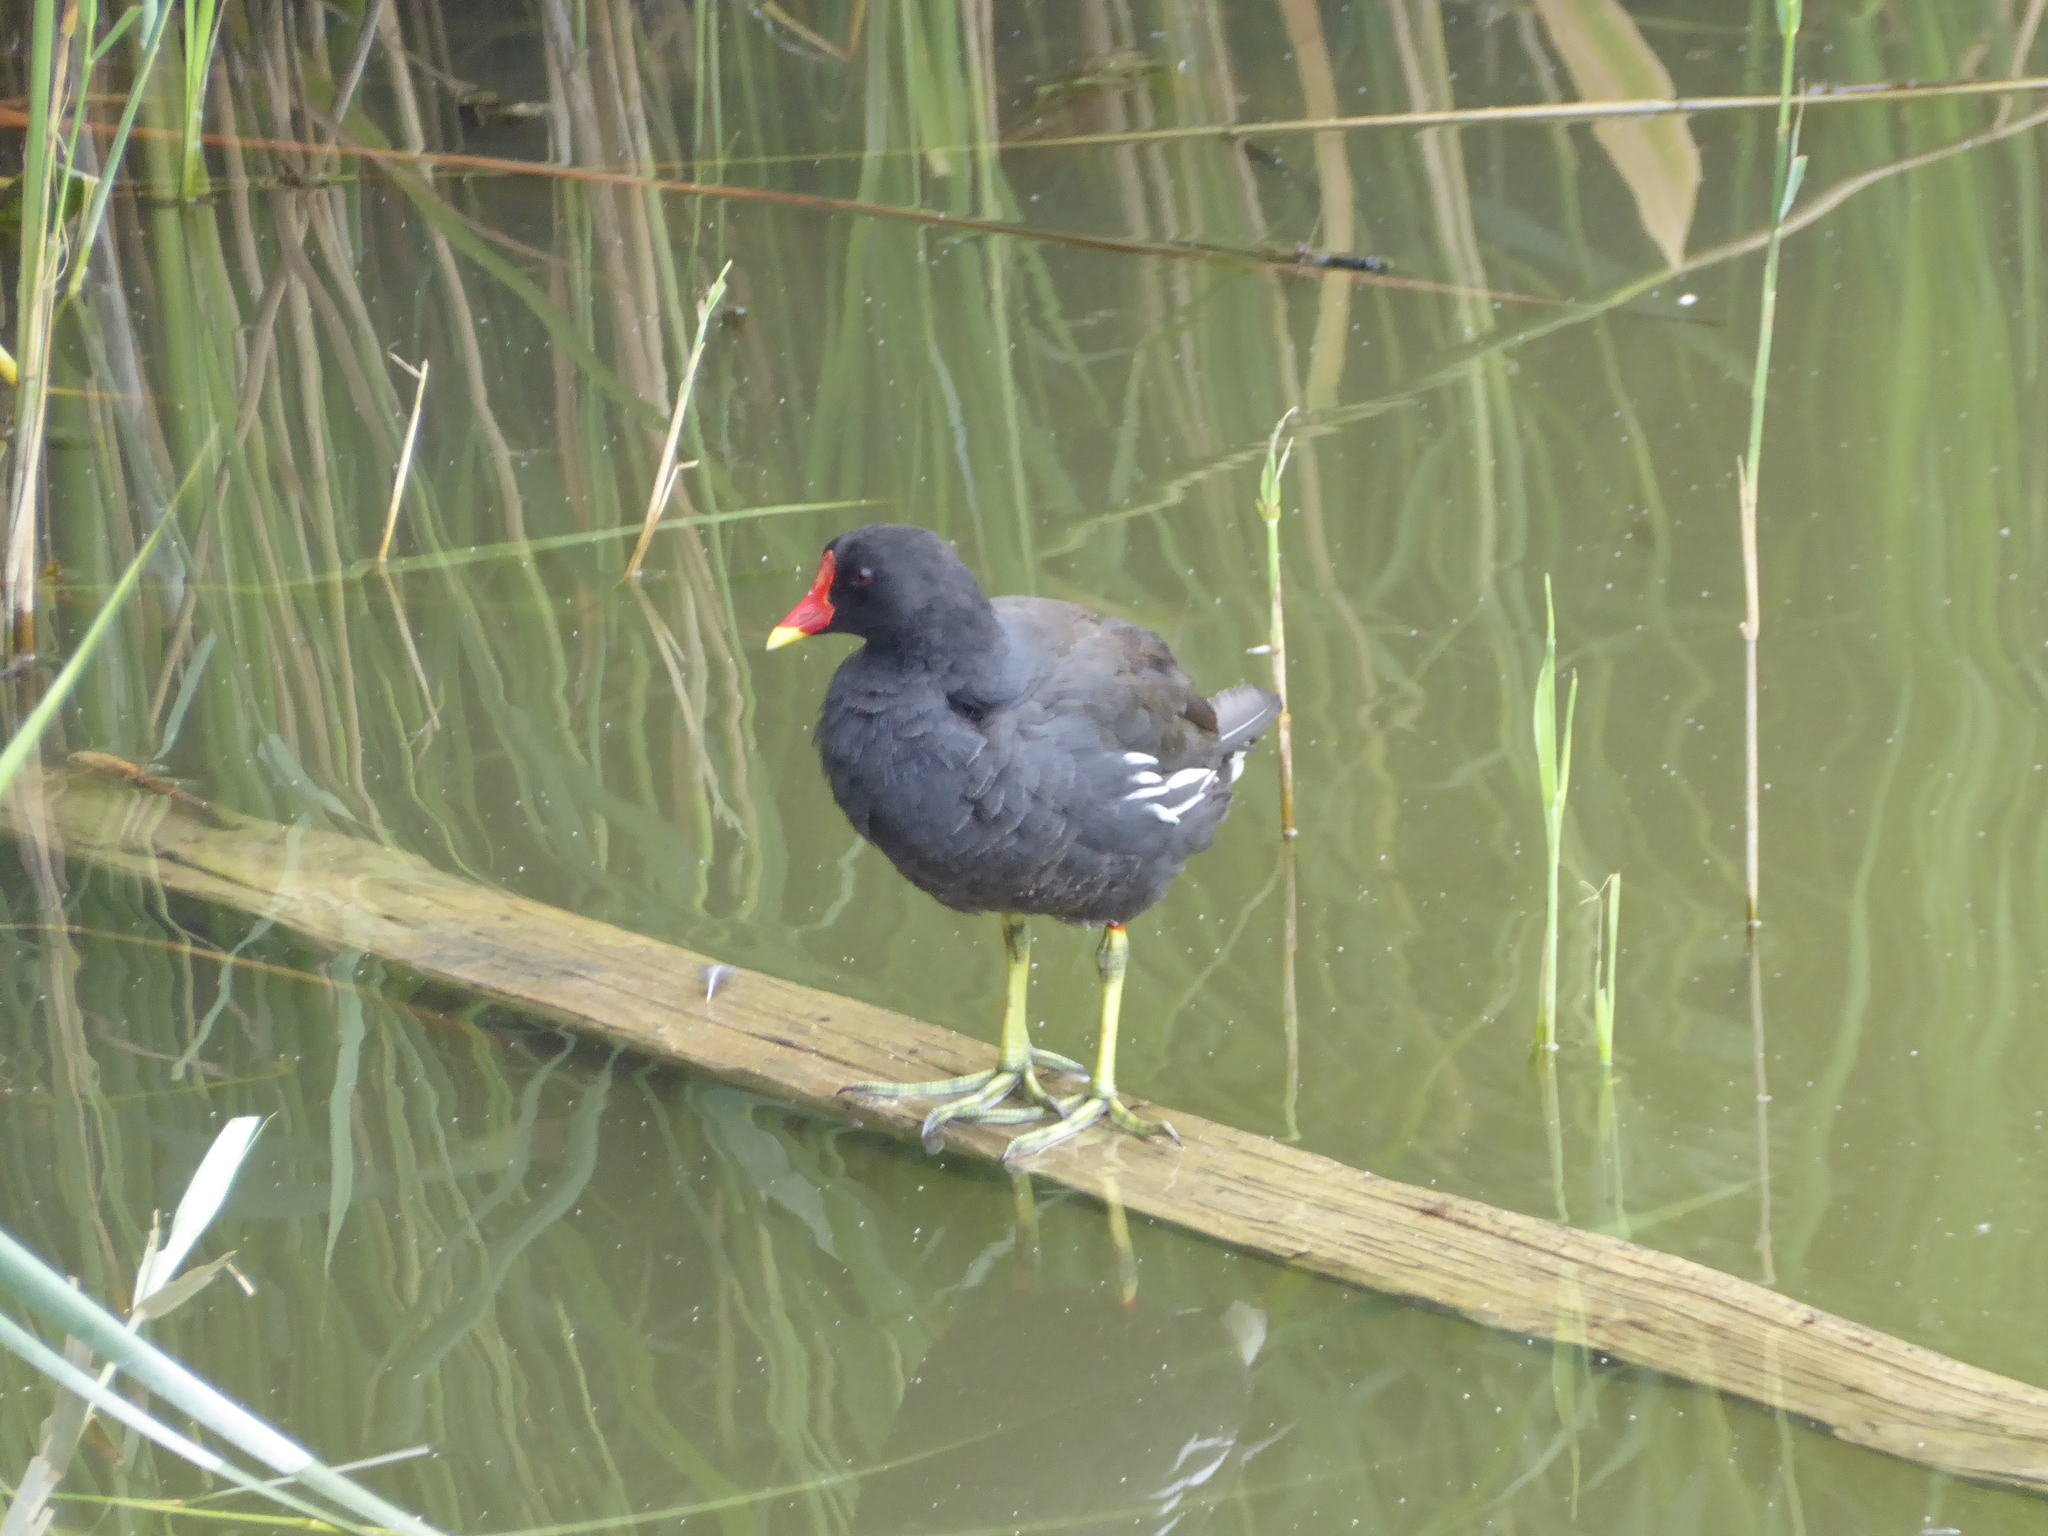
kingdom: Animalia
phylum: Chordata
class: Aves
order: Gruiformes
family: Rallidae
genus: Gallinula
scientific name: Gallinula chloropus
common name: Common moorhen
